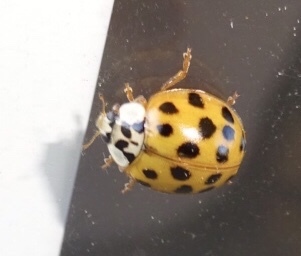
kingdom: Animalia
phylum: Arthropoda
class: Insecta
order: Coleoptera
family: Coccinellidae
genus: Harmonia
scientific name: Harmonia axyridis
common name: Harlequin ladybird
